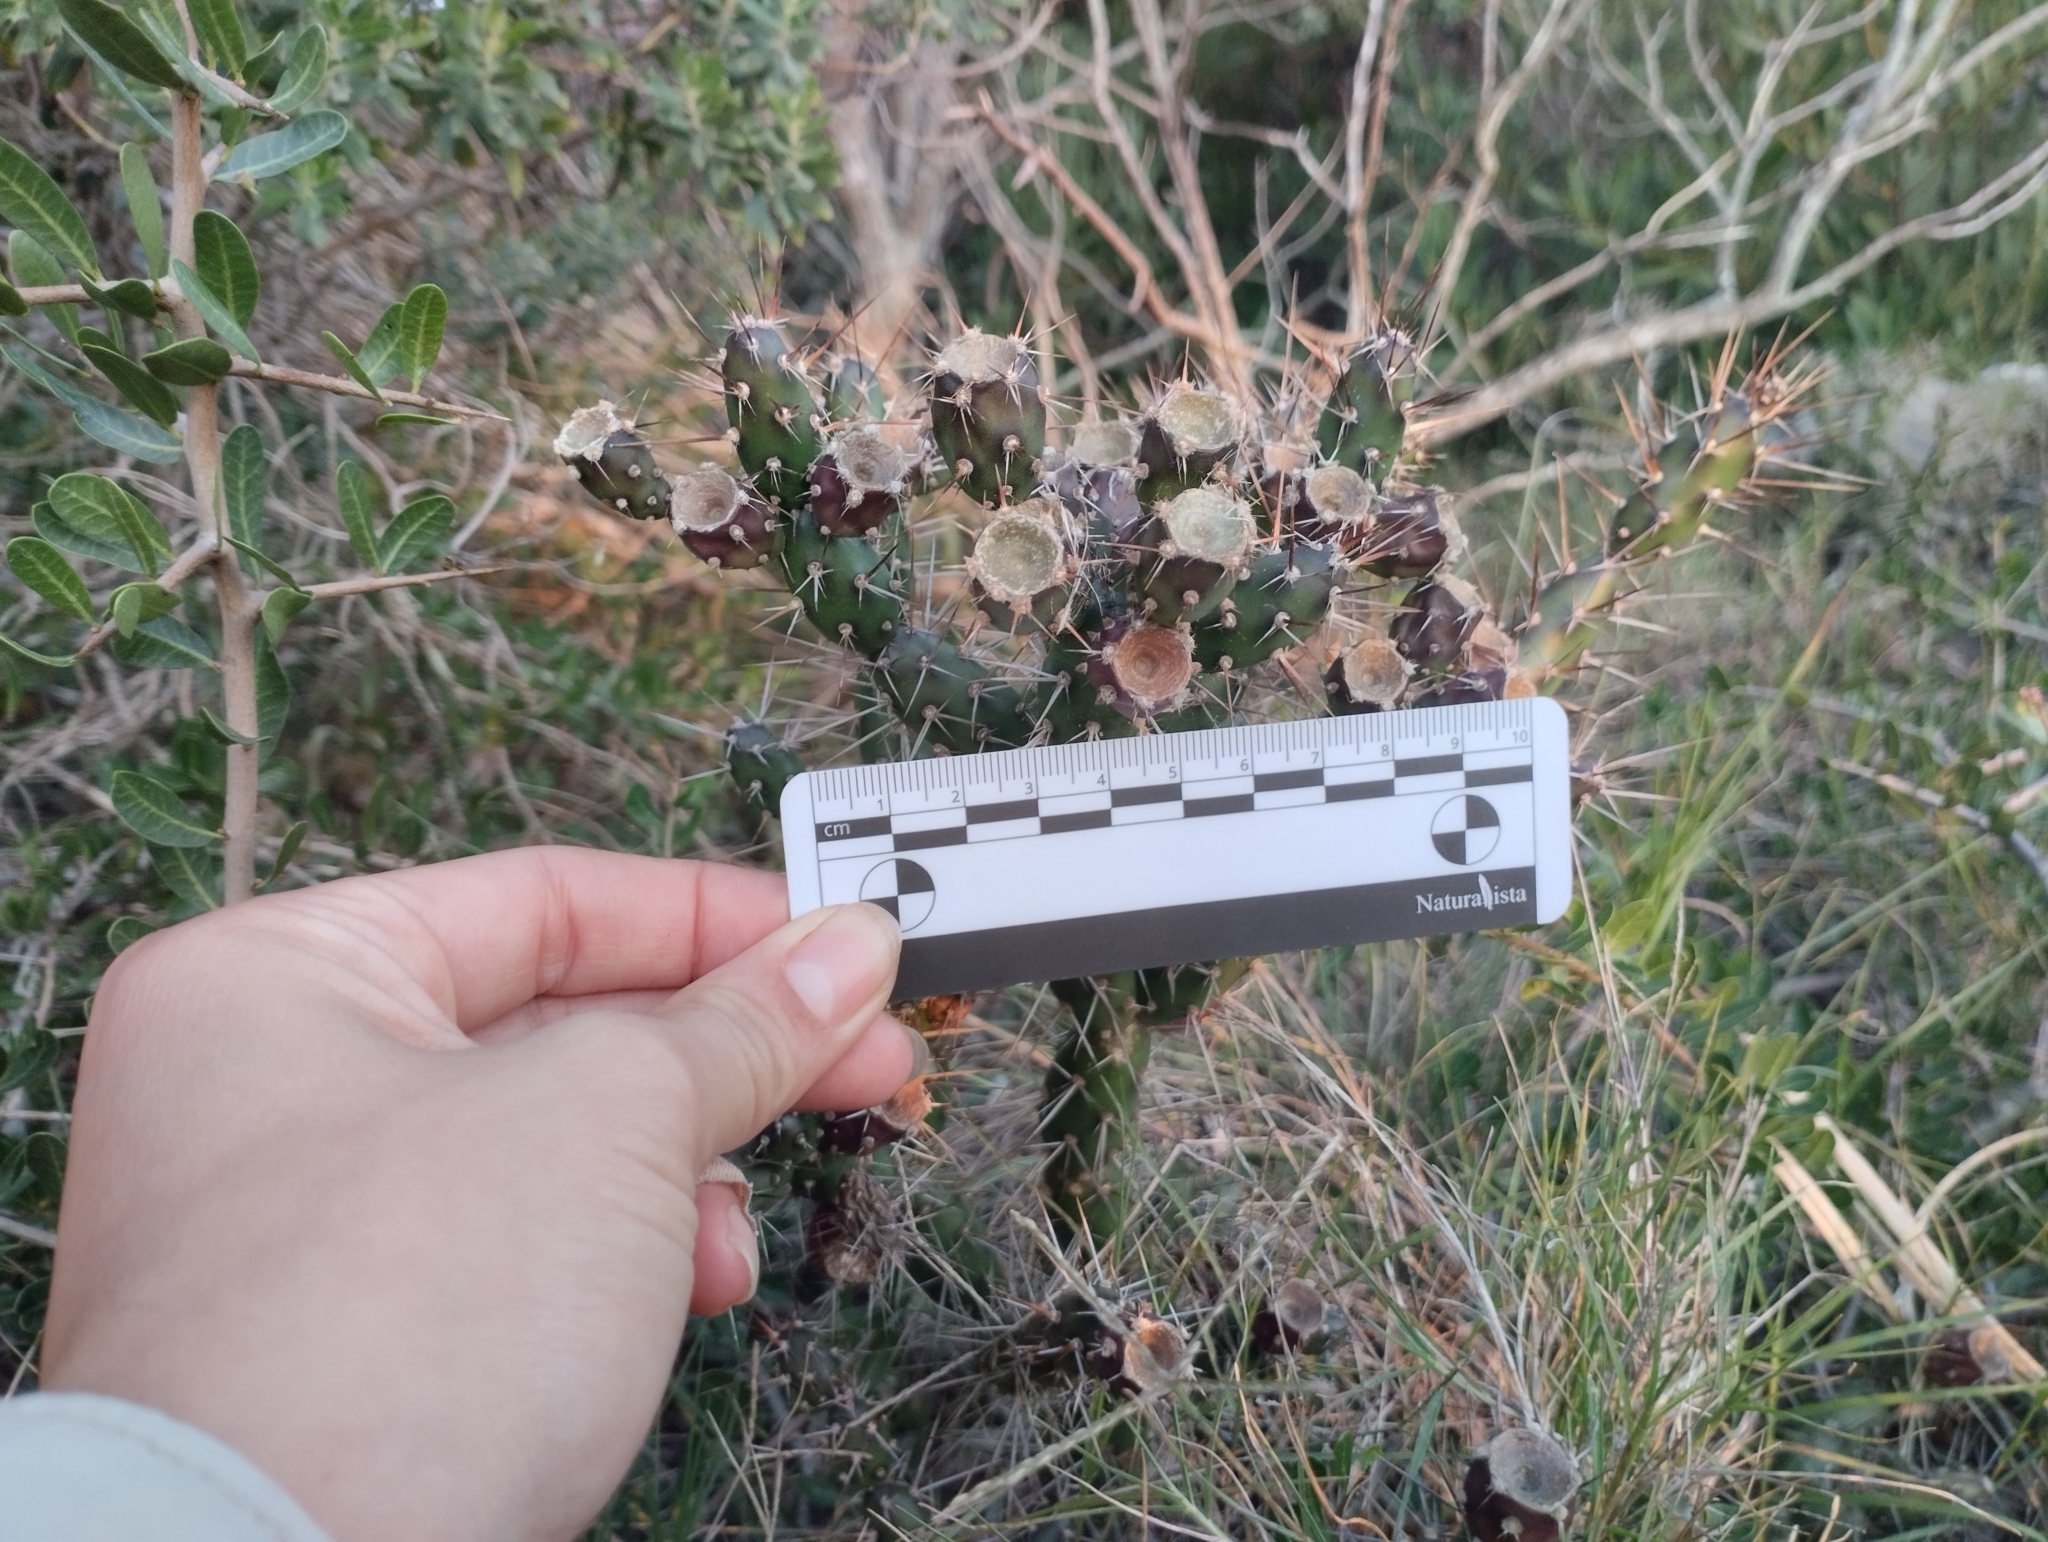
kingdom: Plantae
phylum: Tracheophyta
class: Magnoliopsida
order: Caryophyllales
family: Cactaceae
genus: Opuntia
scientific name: Opuntia aurantiaca
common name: Jointed pricklypear
